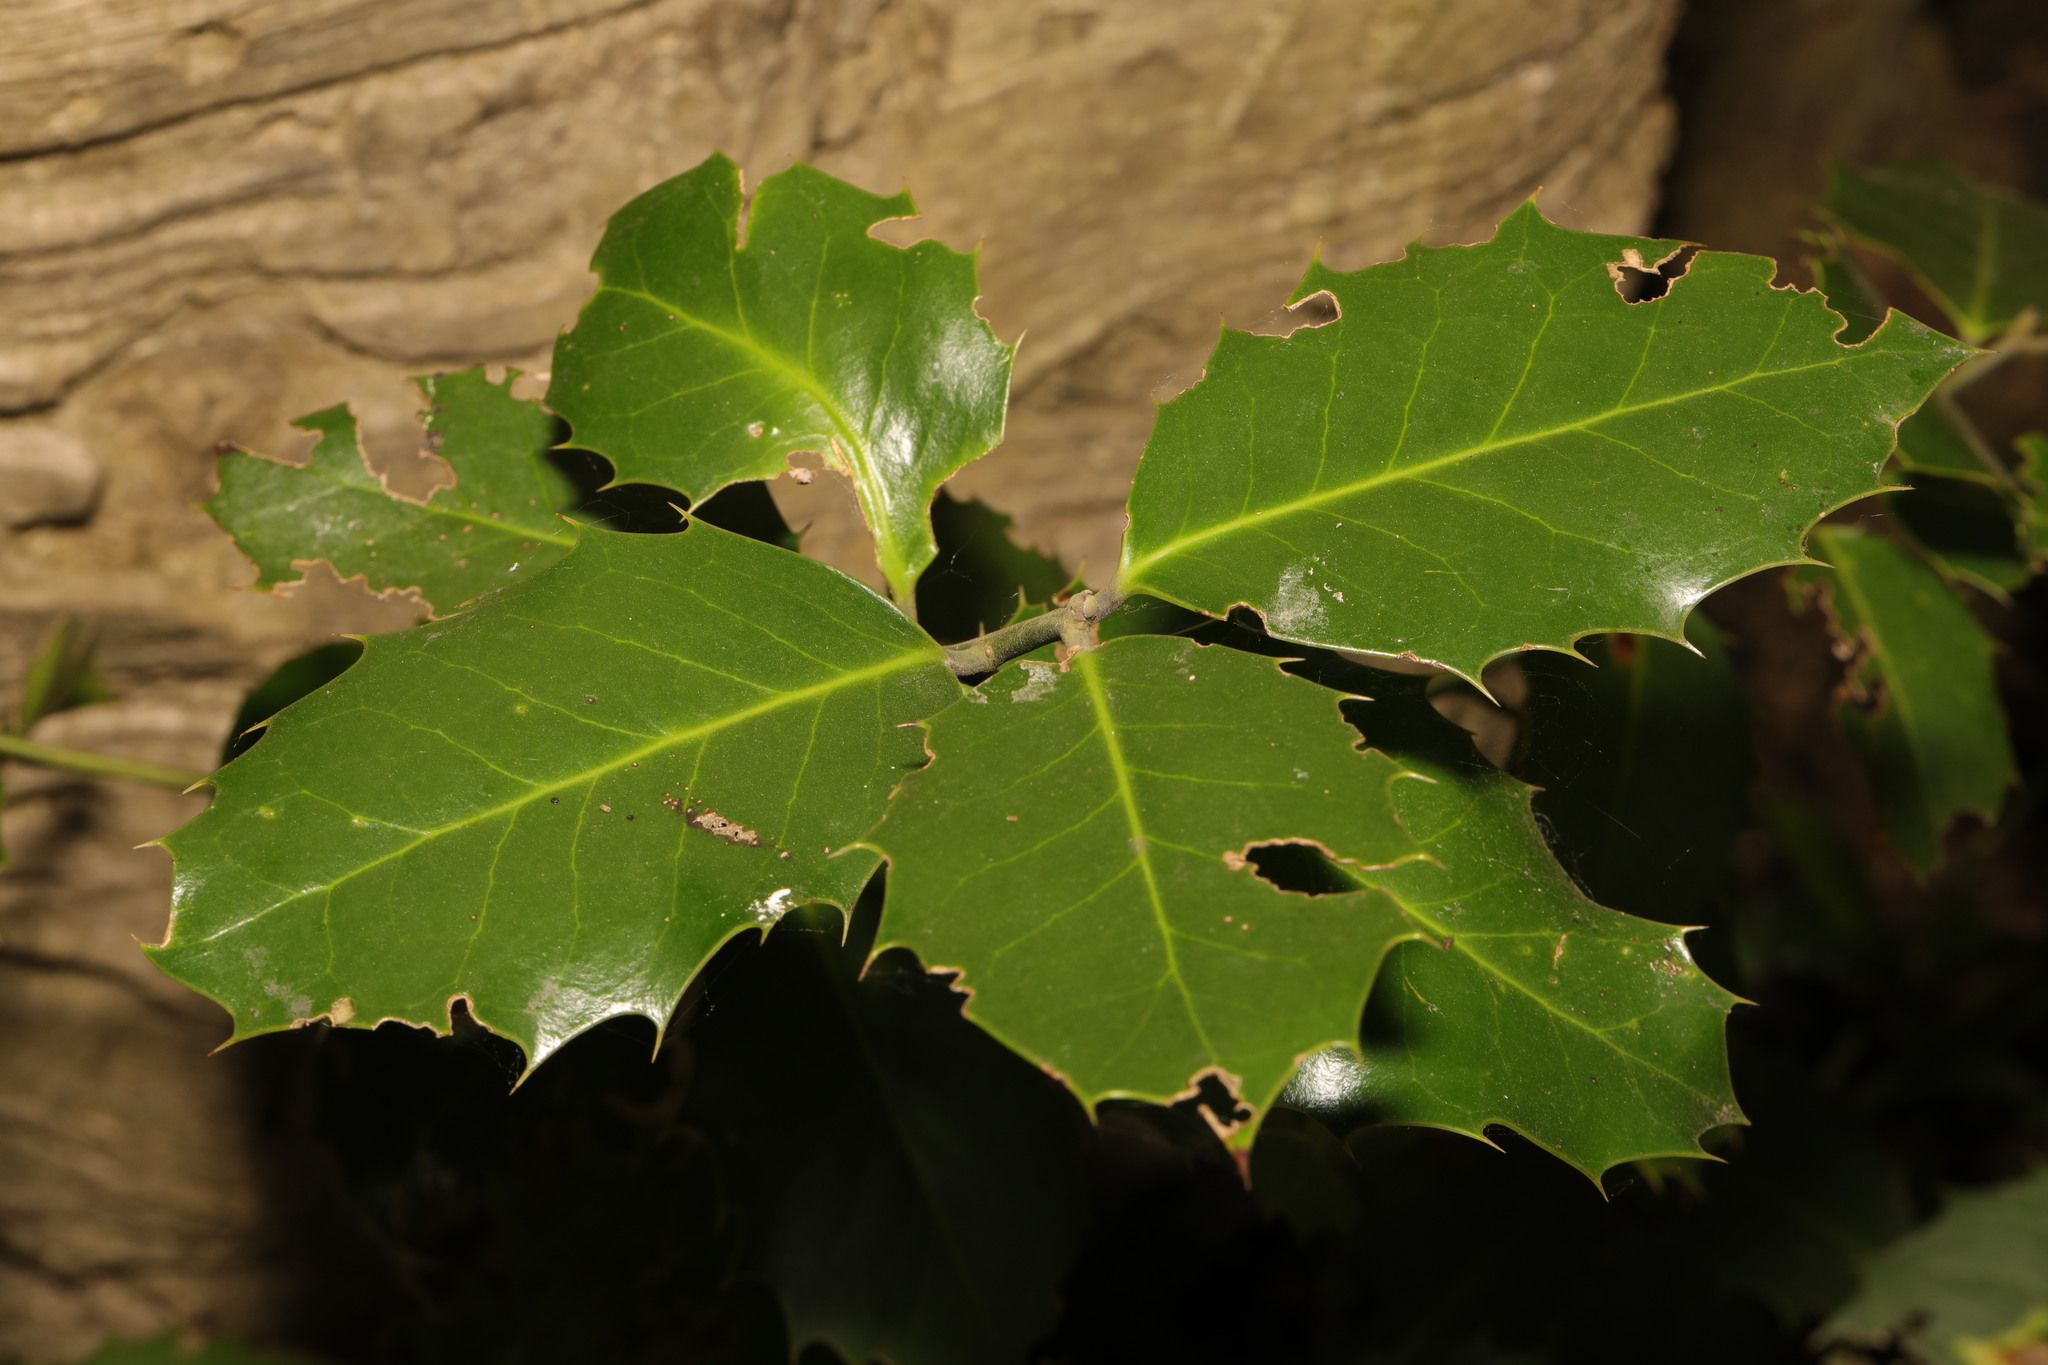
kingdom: Plantae
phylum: Tracheophyta
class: Magnoliopsida
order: Aquifoliales
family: Aquifoliaceae
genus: Ilex
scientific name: Ilex aquifolium
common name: English holly
